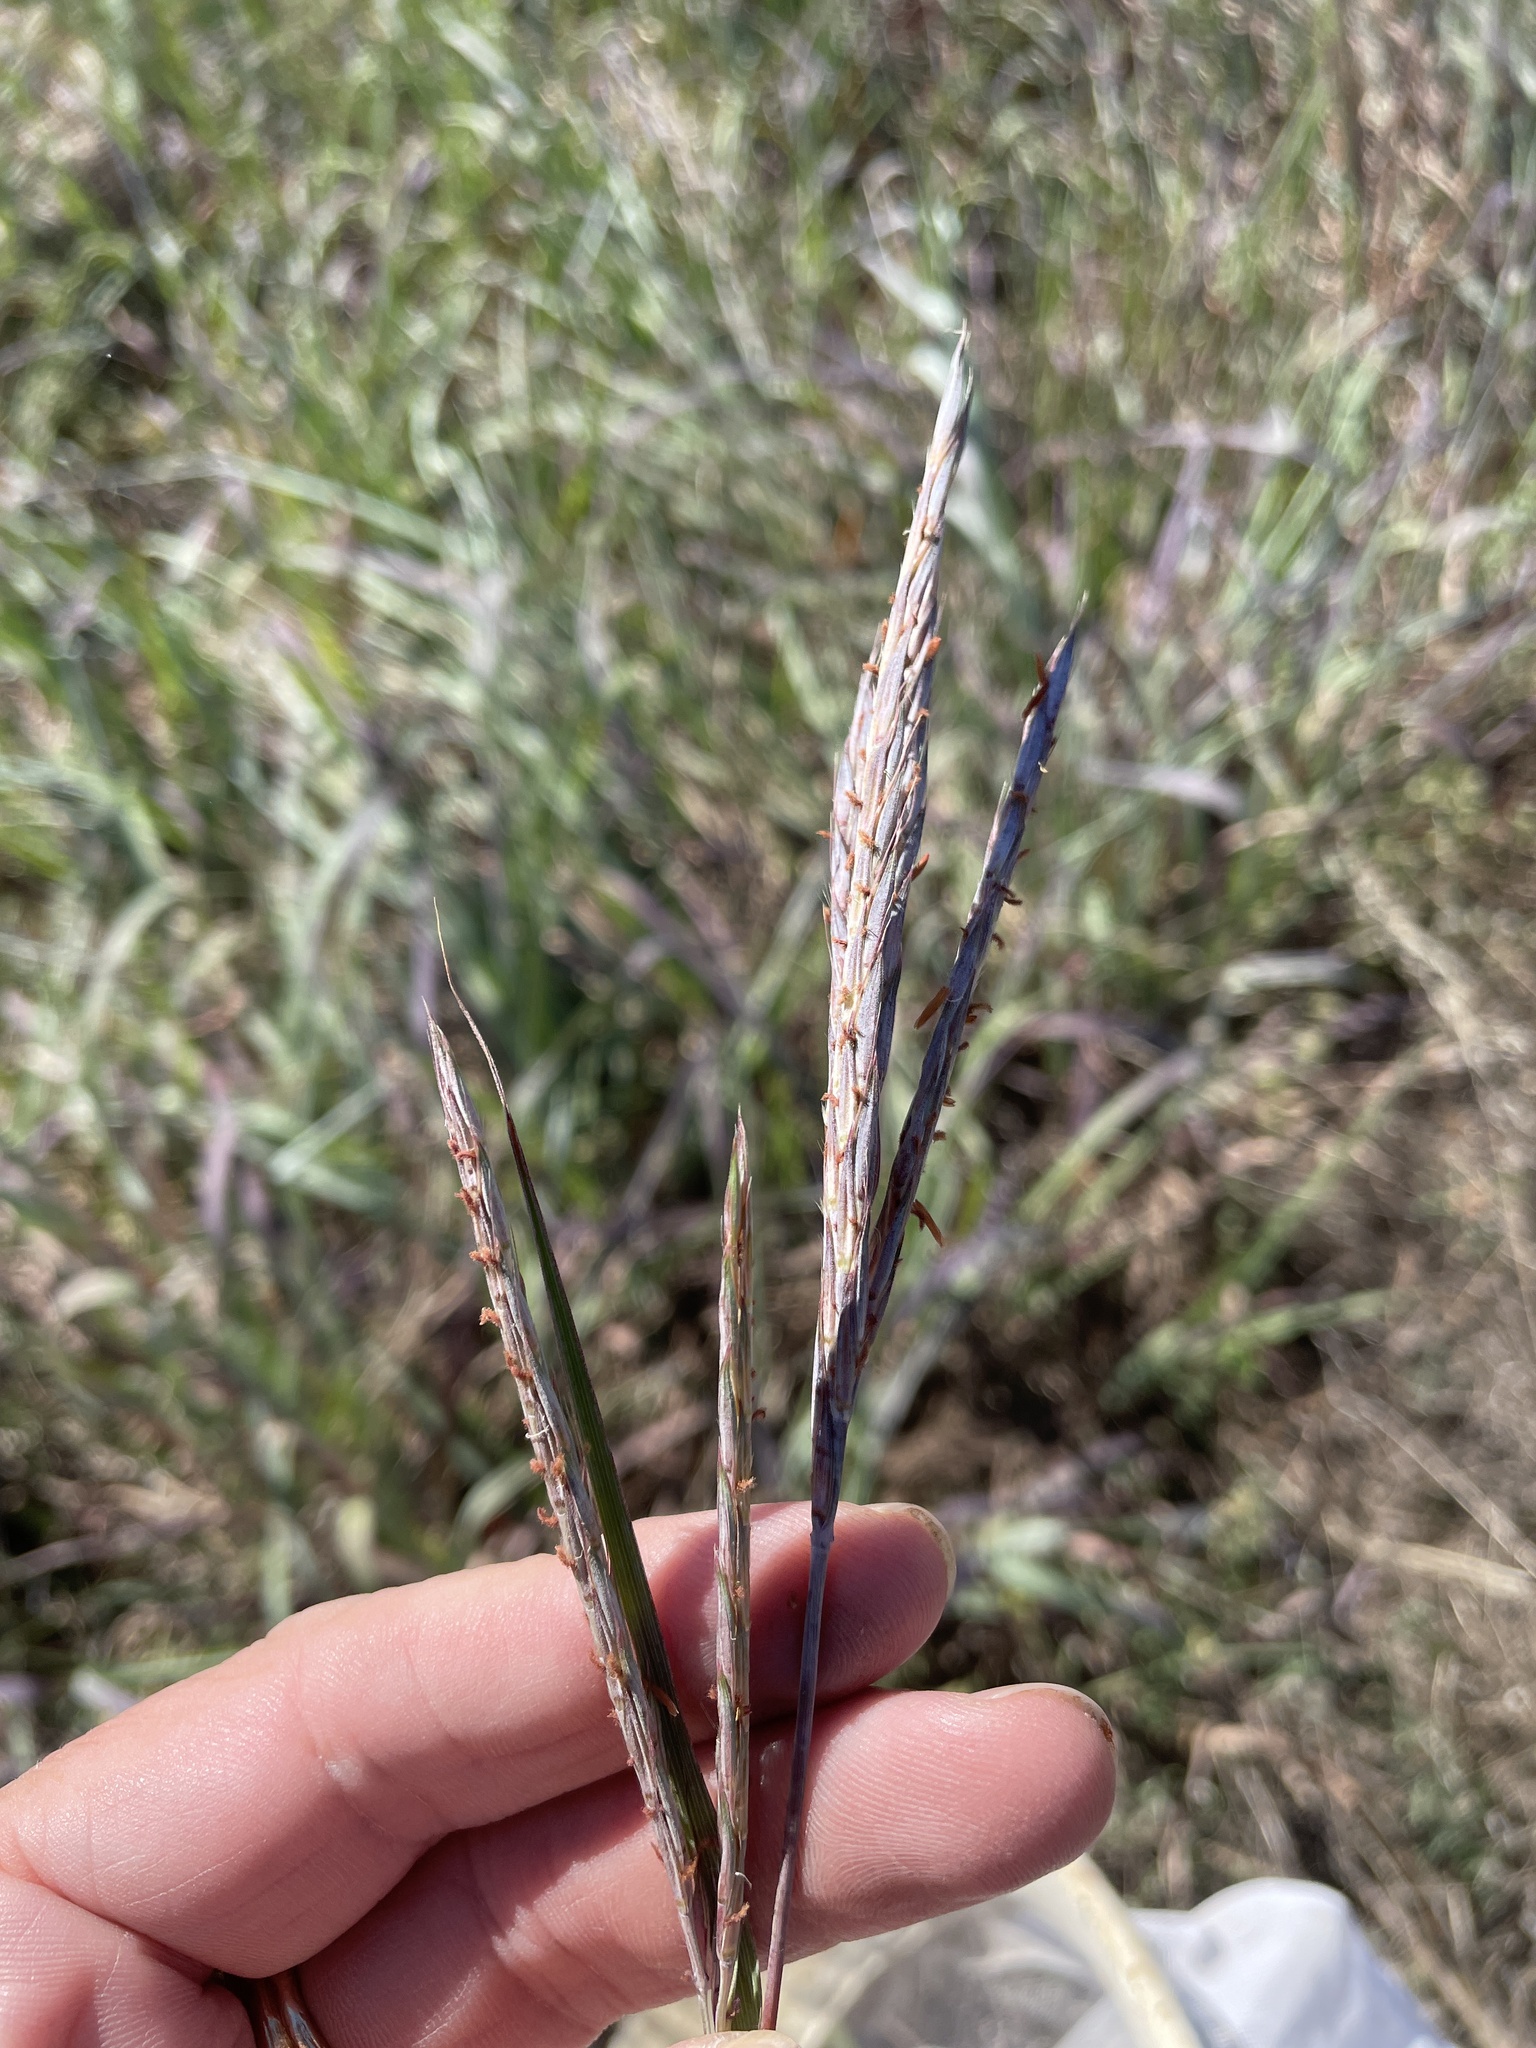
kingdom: Plantae
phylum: Tracheophyta
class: Liliopsida
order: Poales
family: Poaceae
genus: Andropogon
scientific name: Andropogon gerardi
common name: Big bluestem
